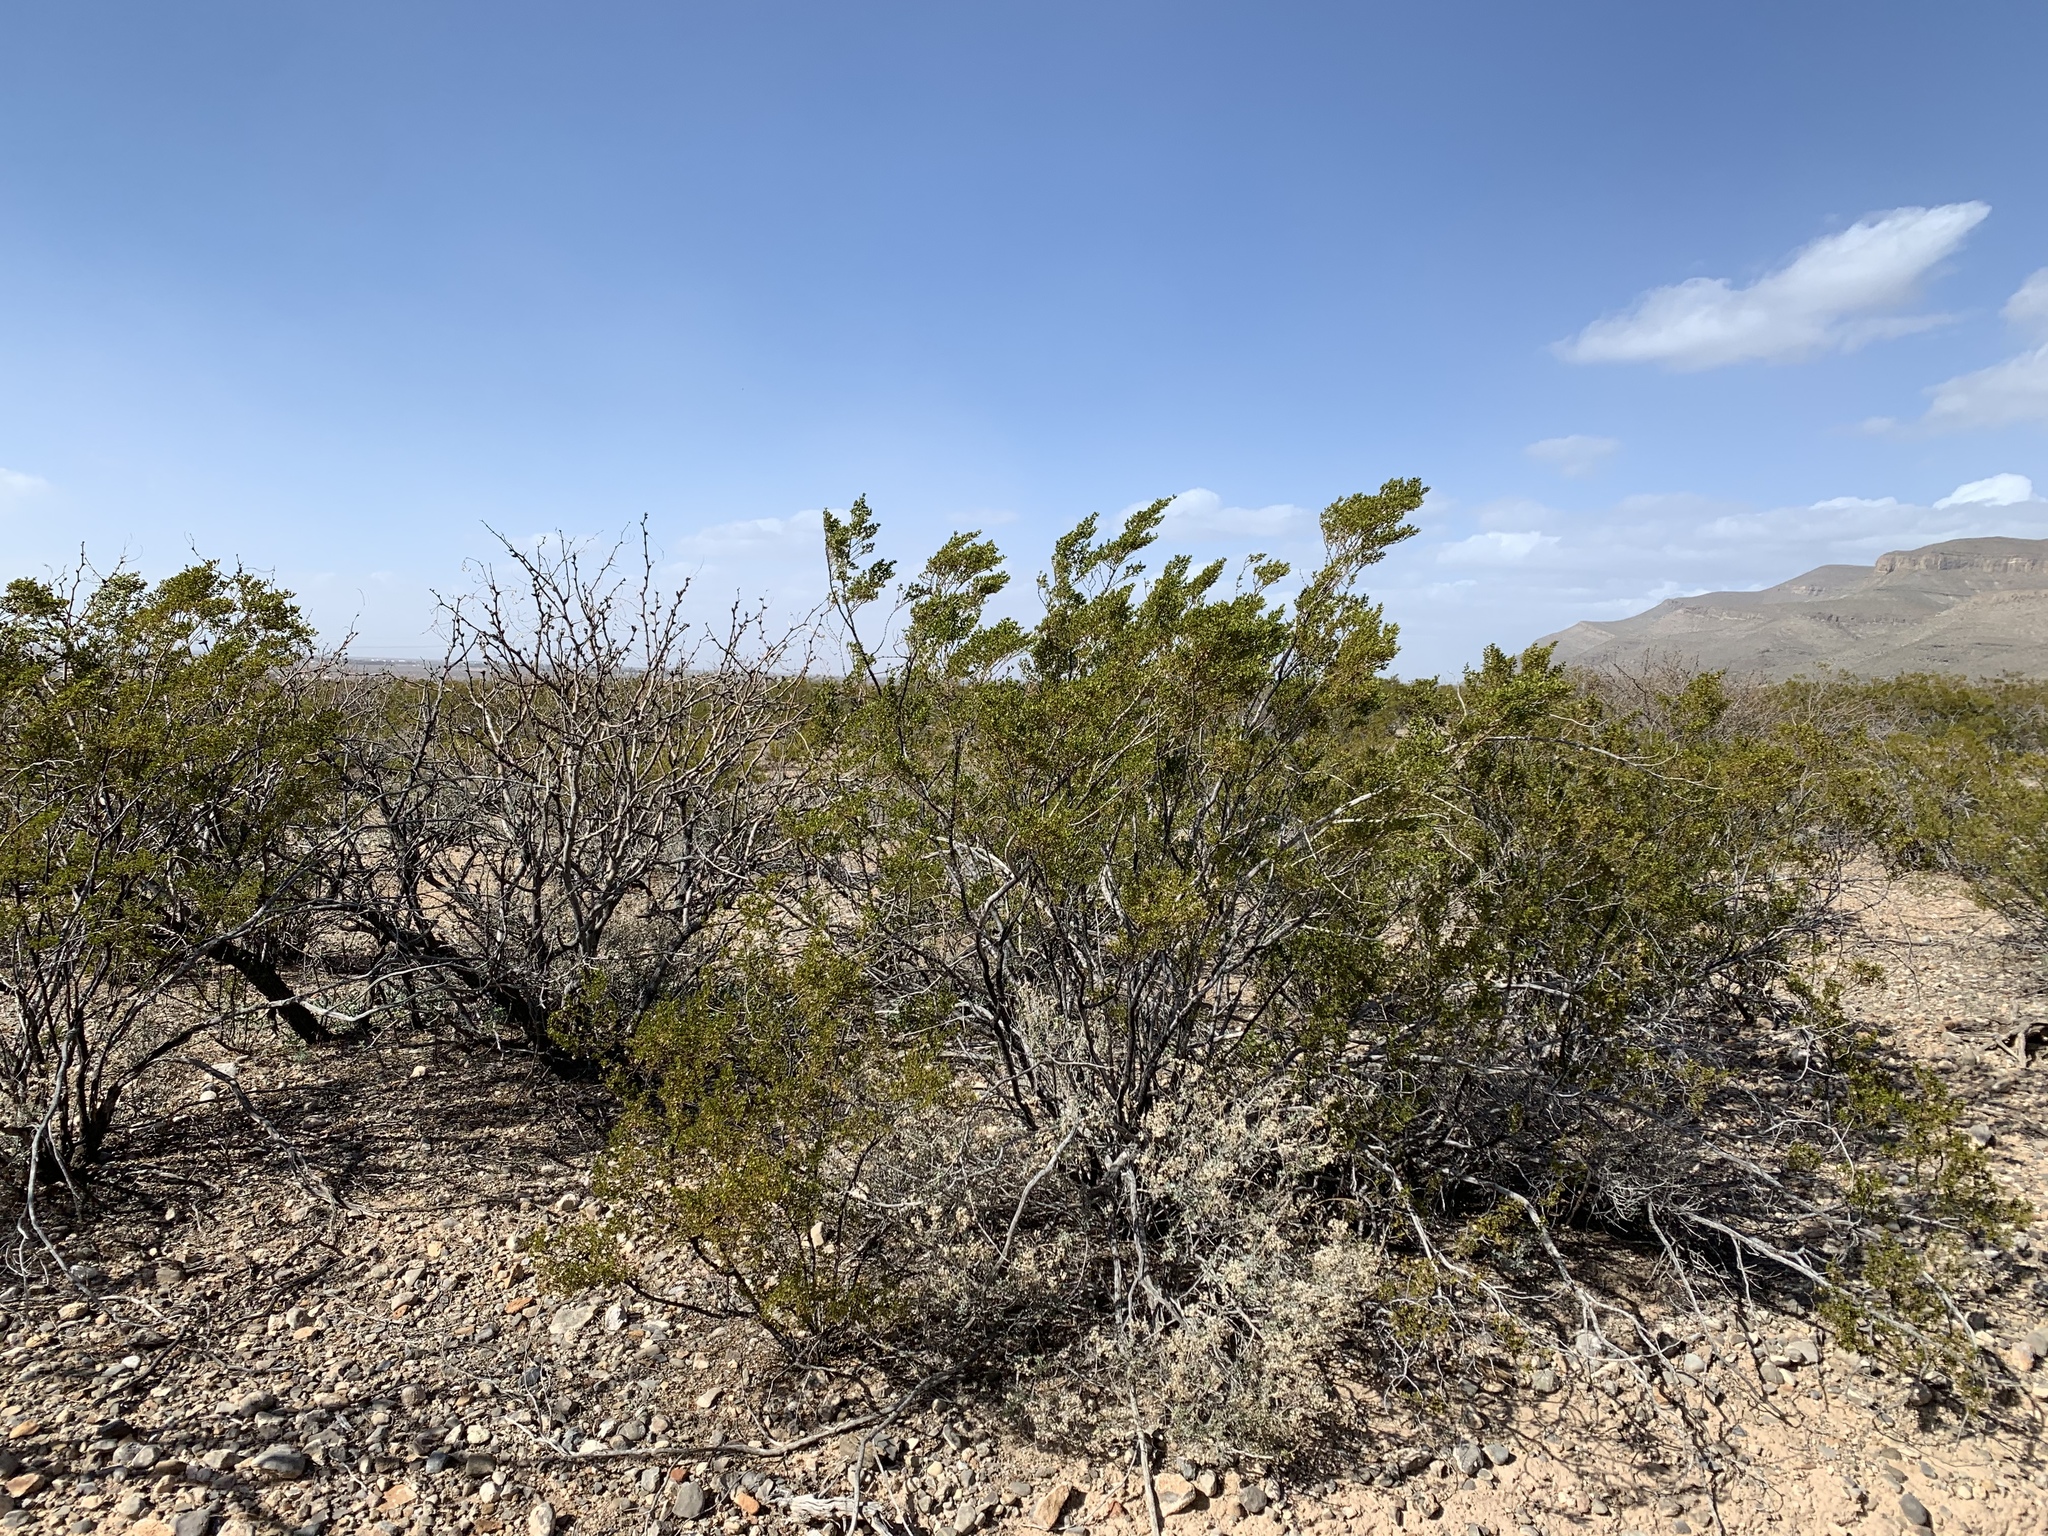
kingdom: Plantae
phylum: Tracheophyta
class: Magnoliopsida
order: Zygophyllales
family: Zygophyllaceae
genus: Larrea
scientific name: Larrea tridentata
